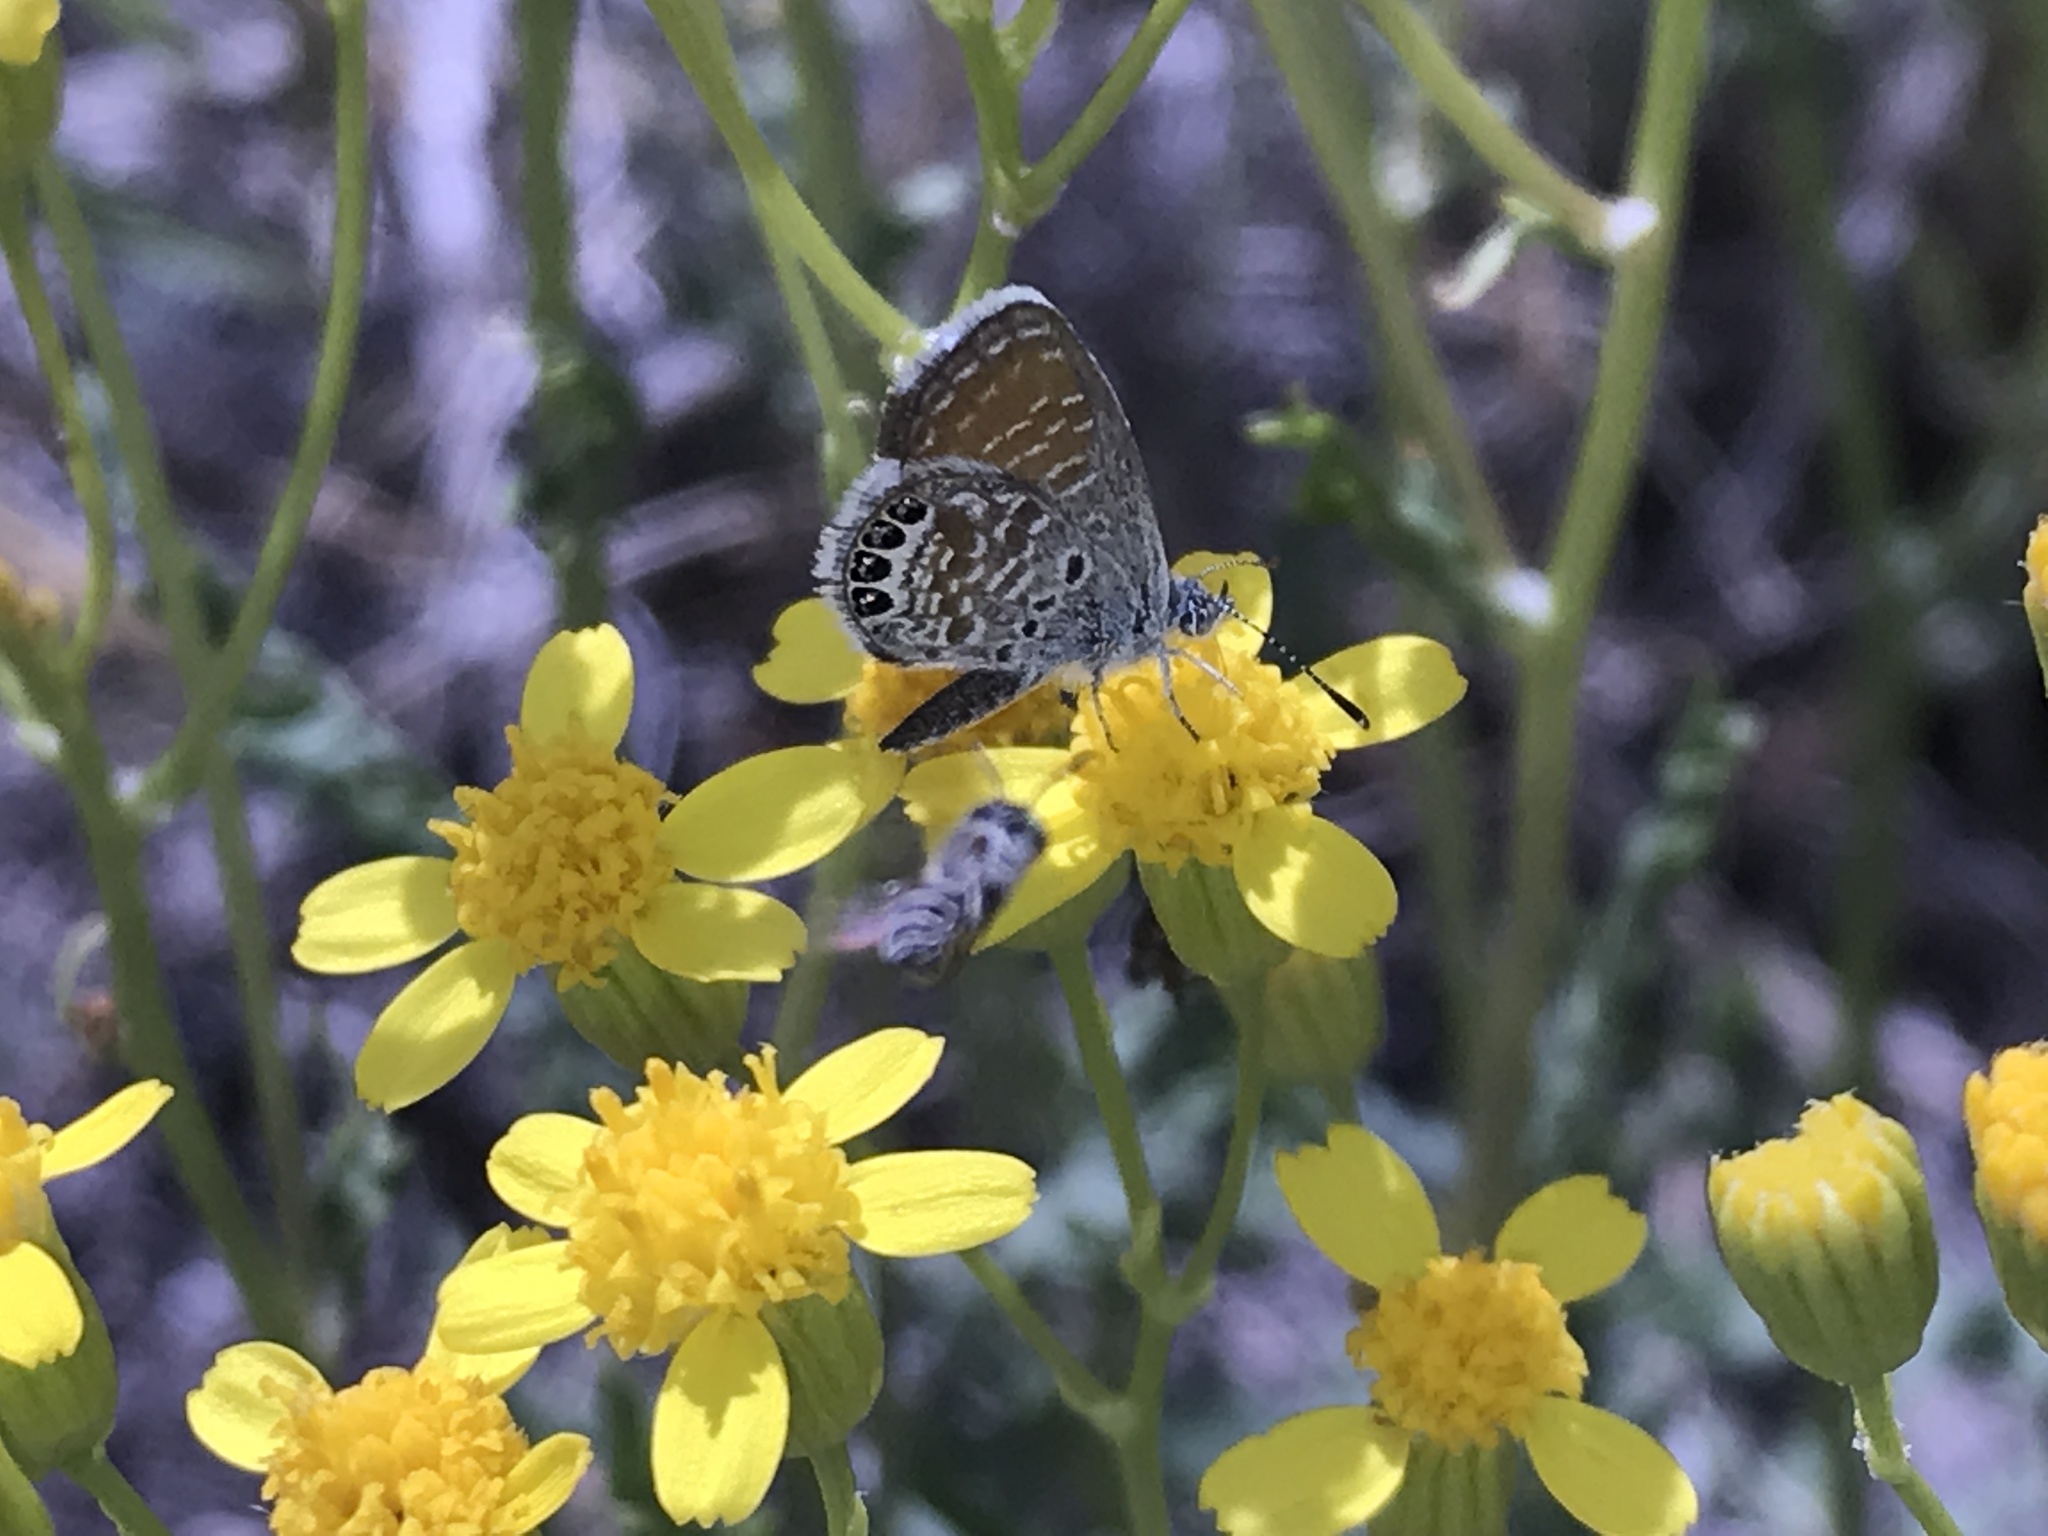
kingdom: Animalia
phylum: Arthropoda
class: Insecta
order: Lepidoptera
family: Lycaenidae
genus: Brephidium
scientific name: Brephidium exilis
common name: Pygmy blue
